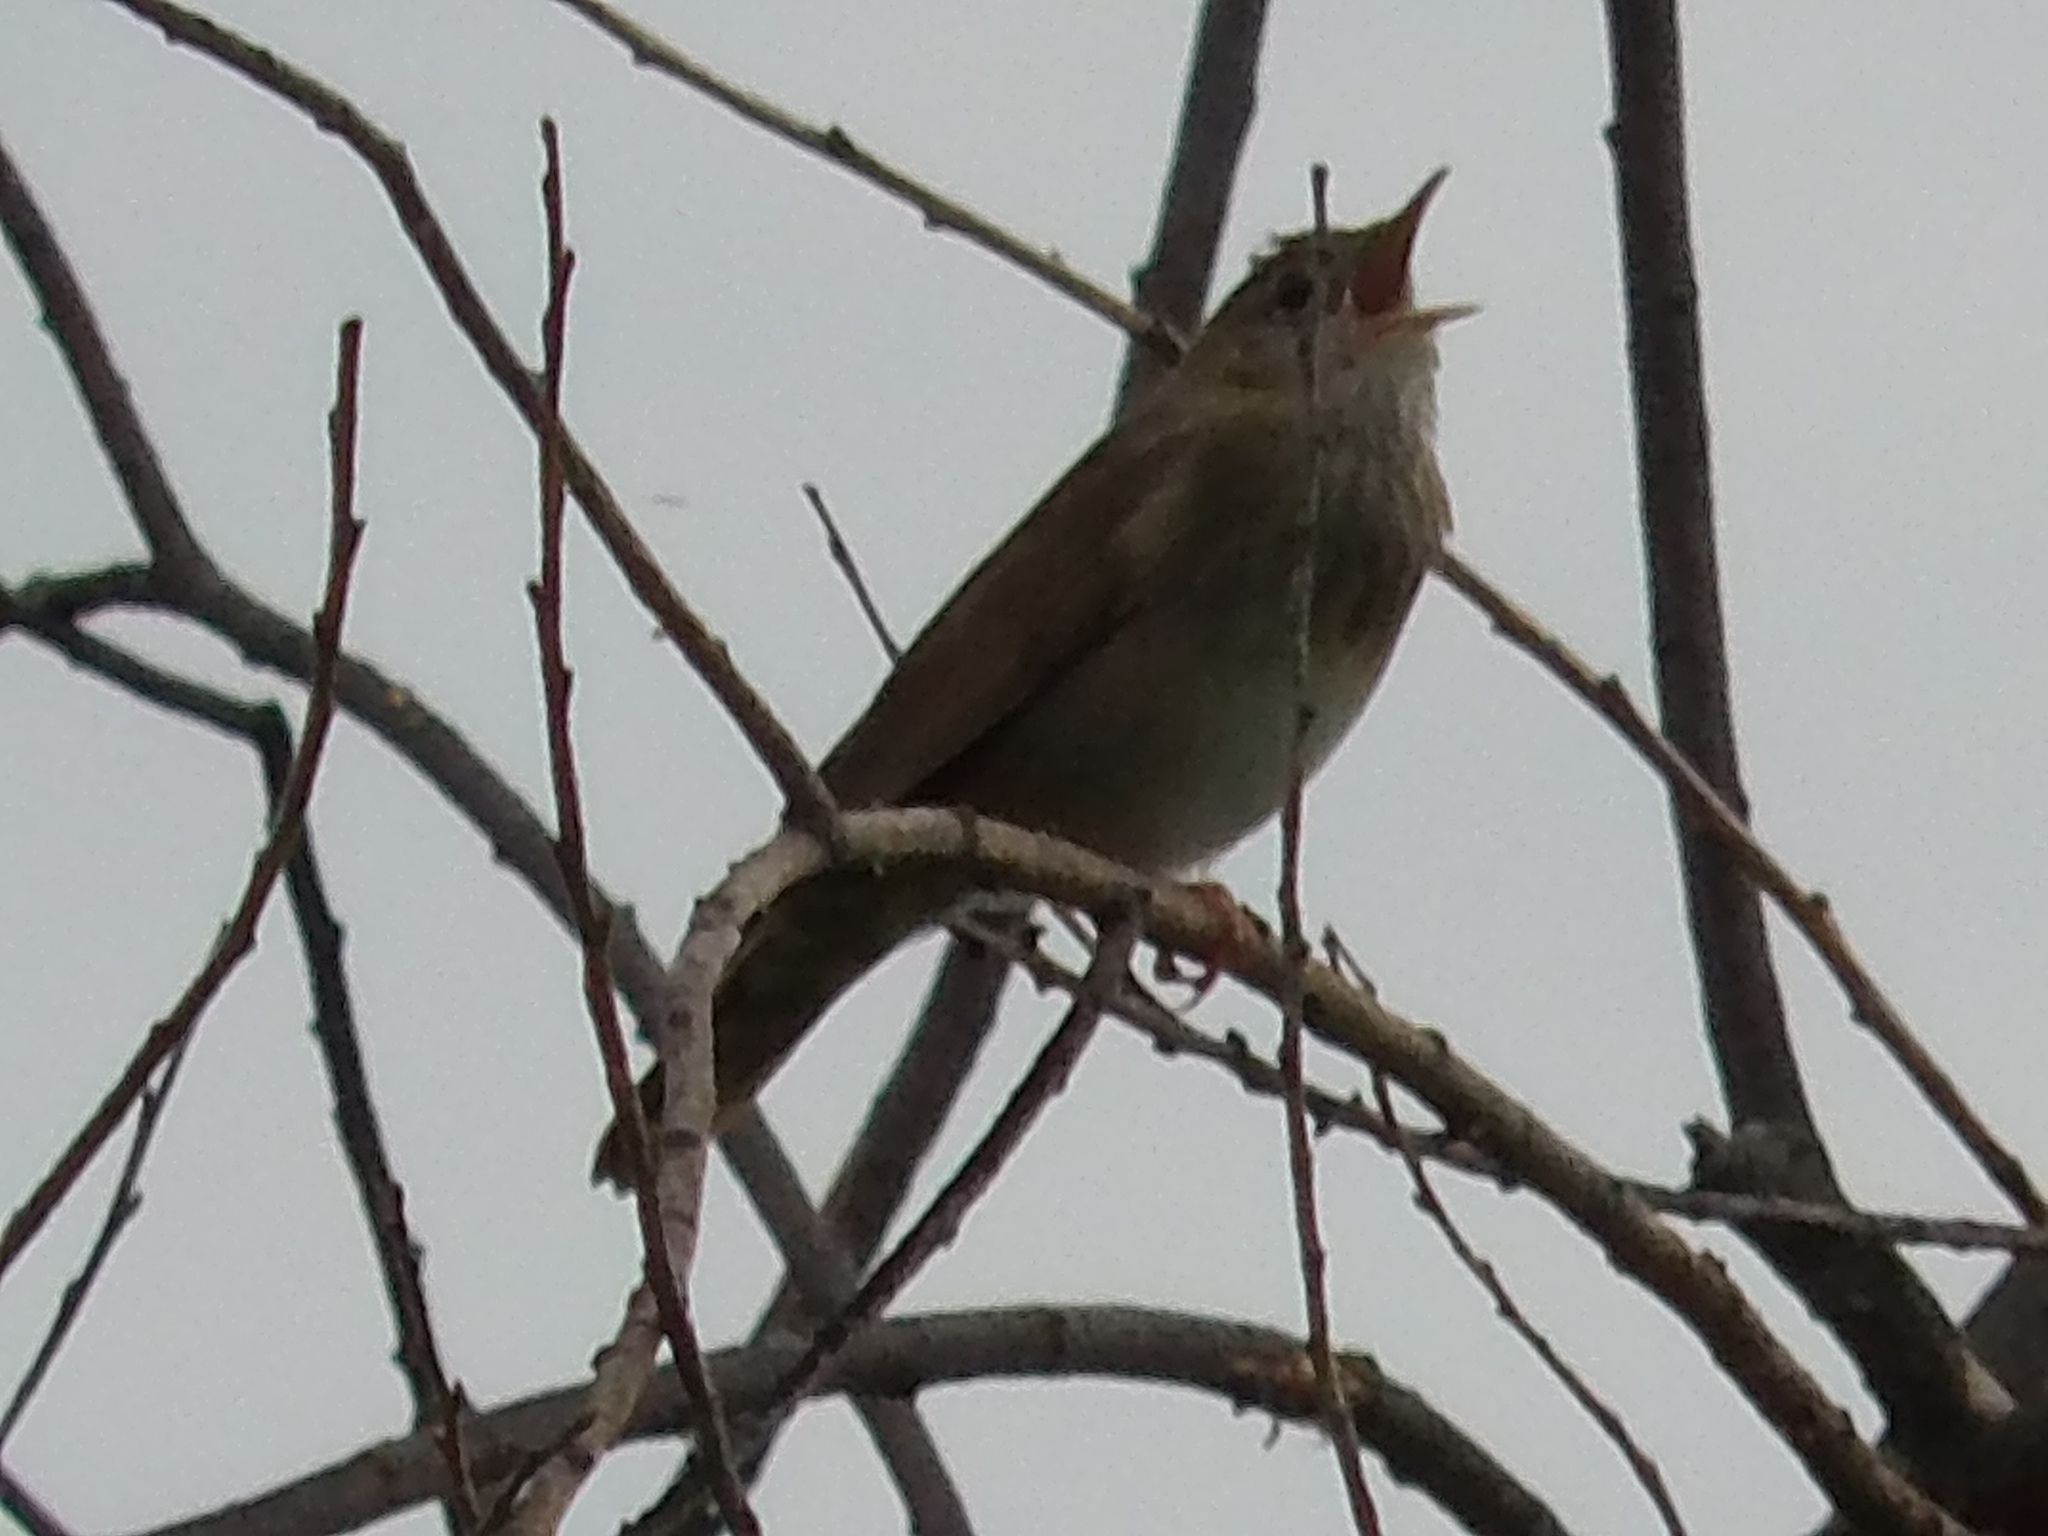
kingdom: Animalia
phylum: Chordata
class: Aves
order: Passeriformes
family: Locustellidae
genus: Locustella
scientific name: Locustella fluviatilis
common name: River warbler
